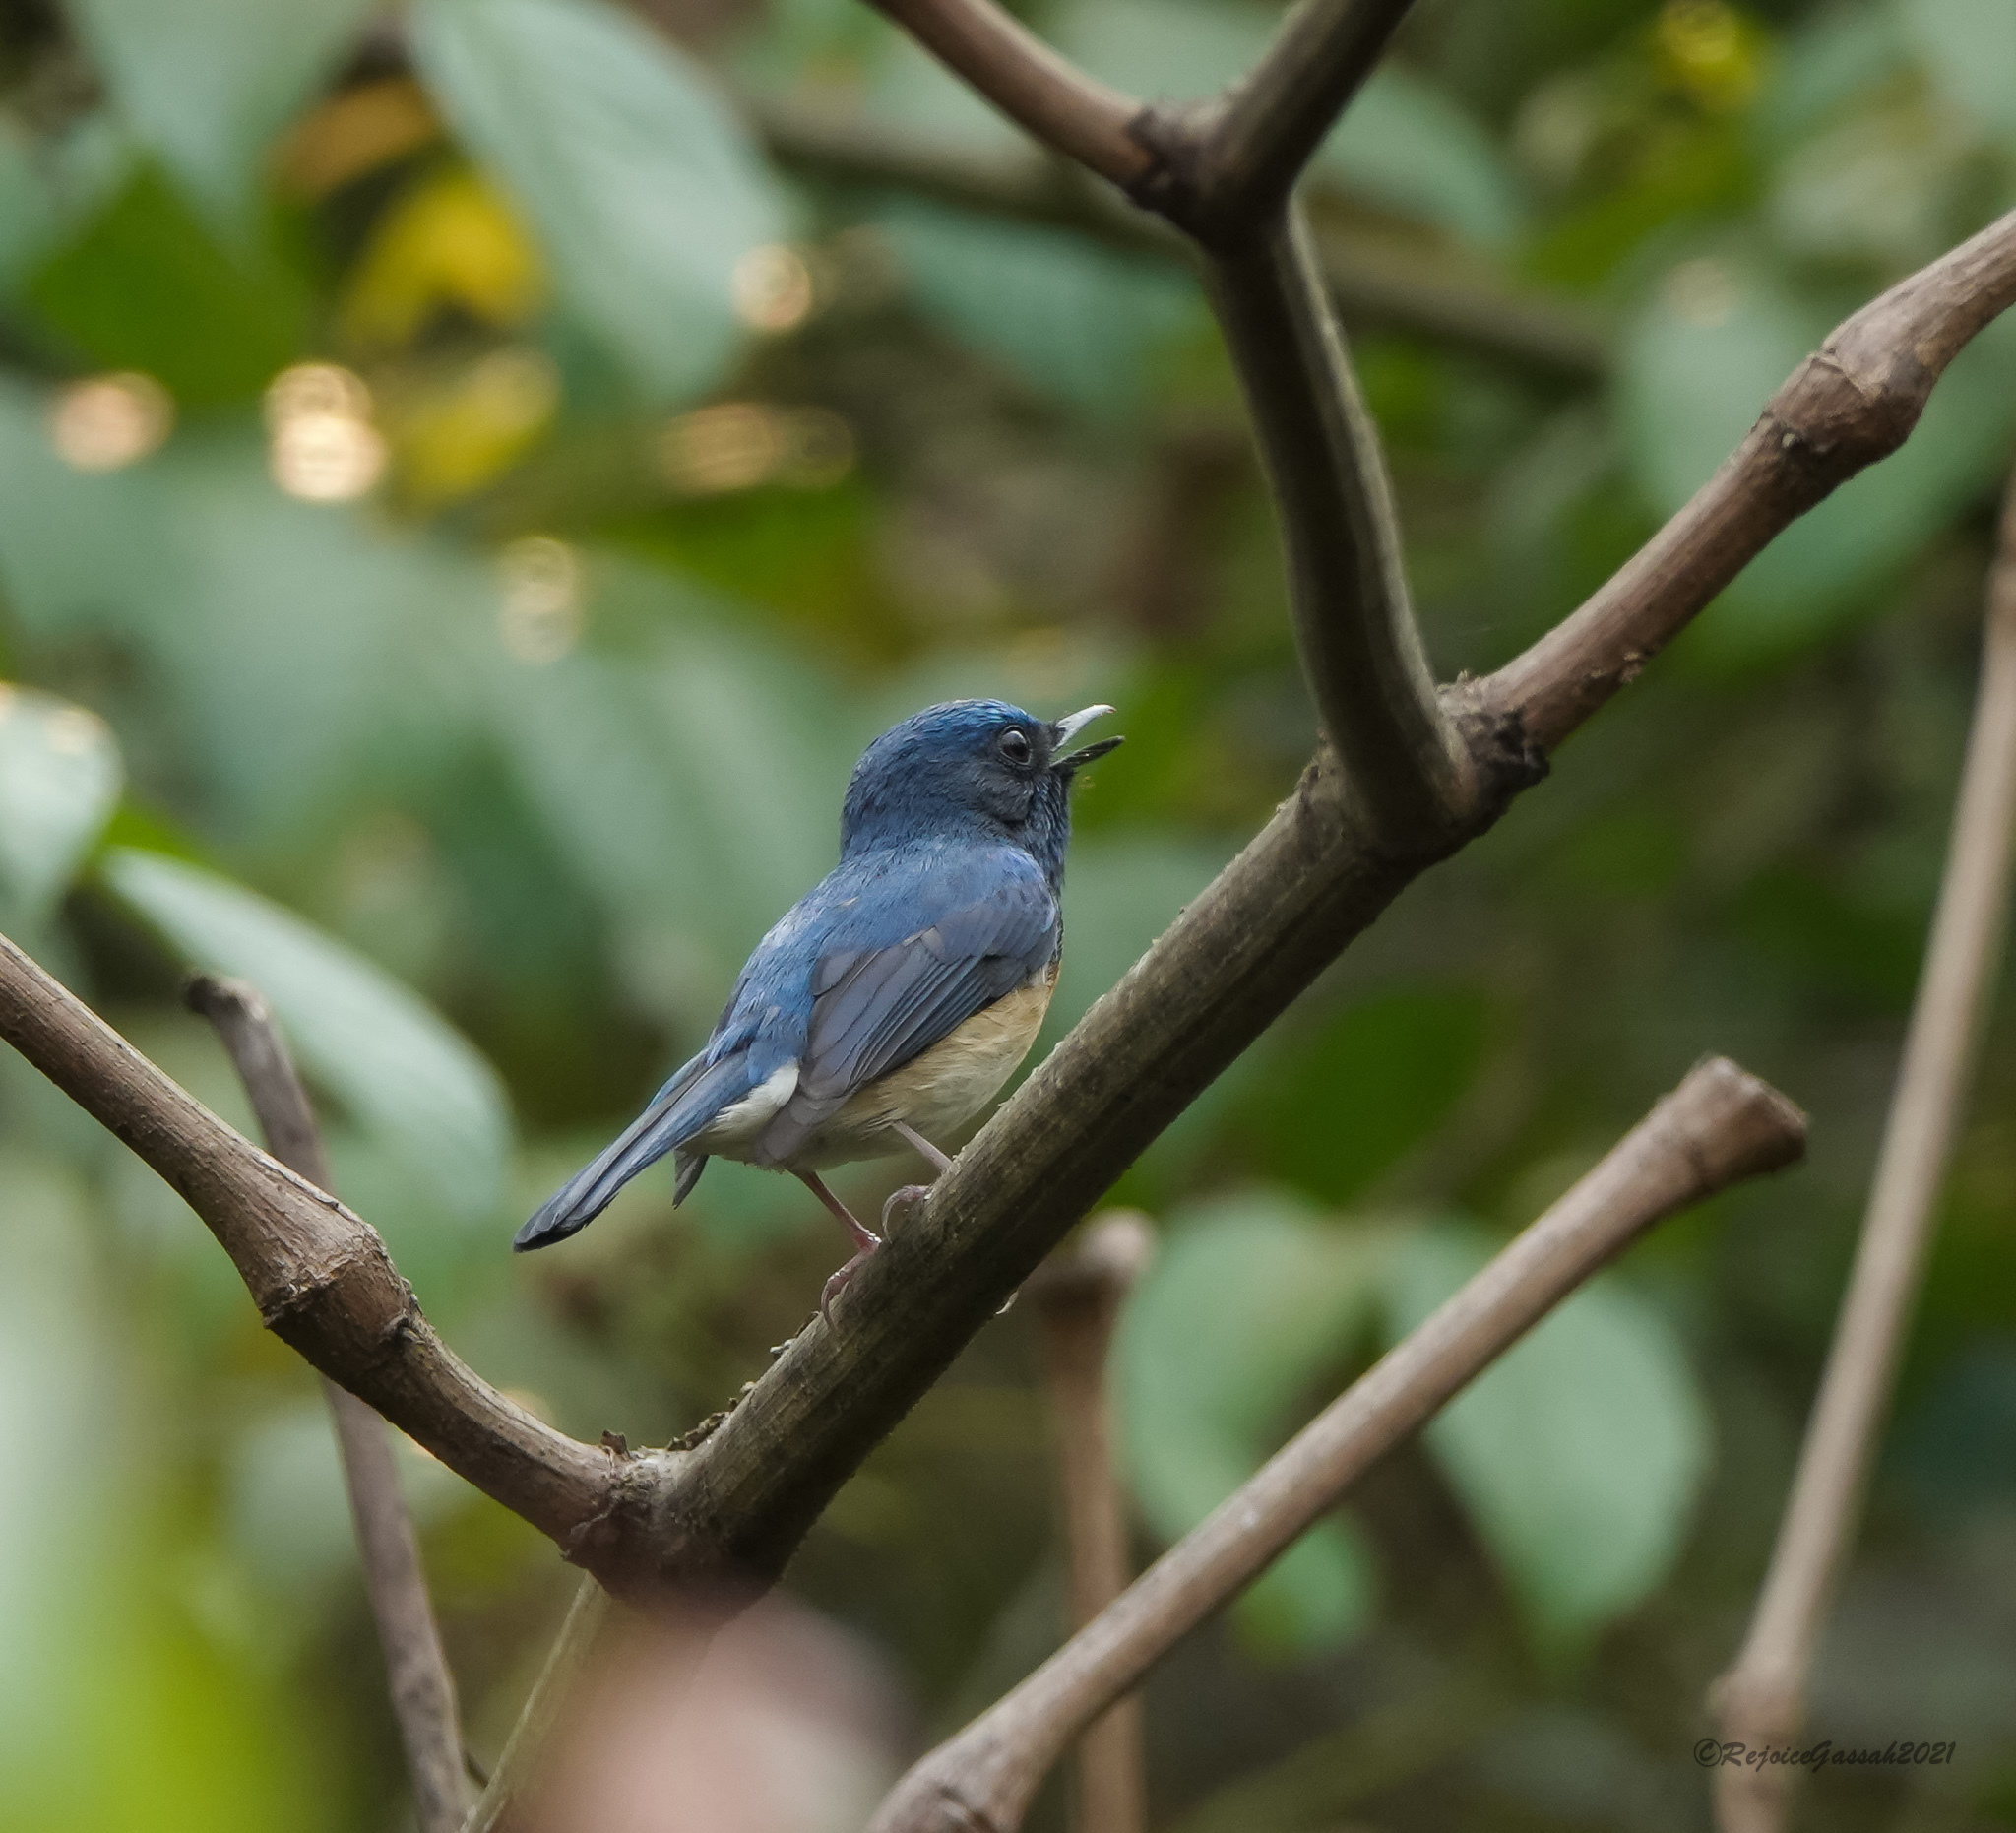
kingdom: Animalia
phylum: Chordata
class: Aves
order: Passeriformes
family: Muscicapidae
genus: Cyornis
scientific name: Cyornis rubeculoides
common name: Blue-throated blue flycatcher
